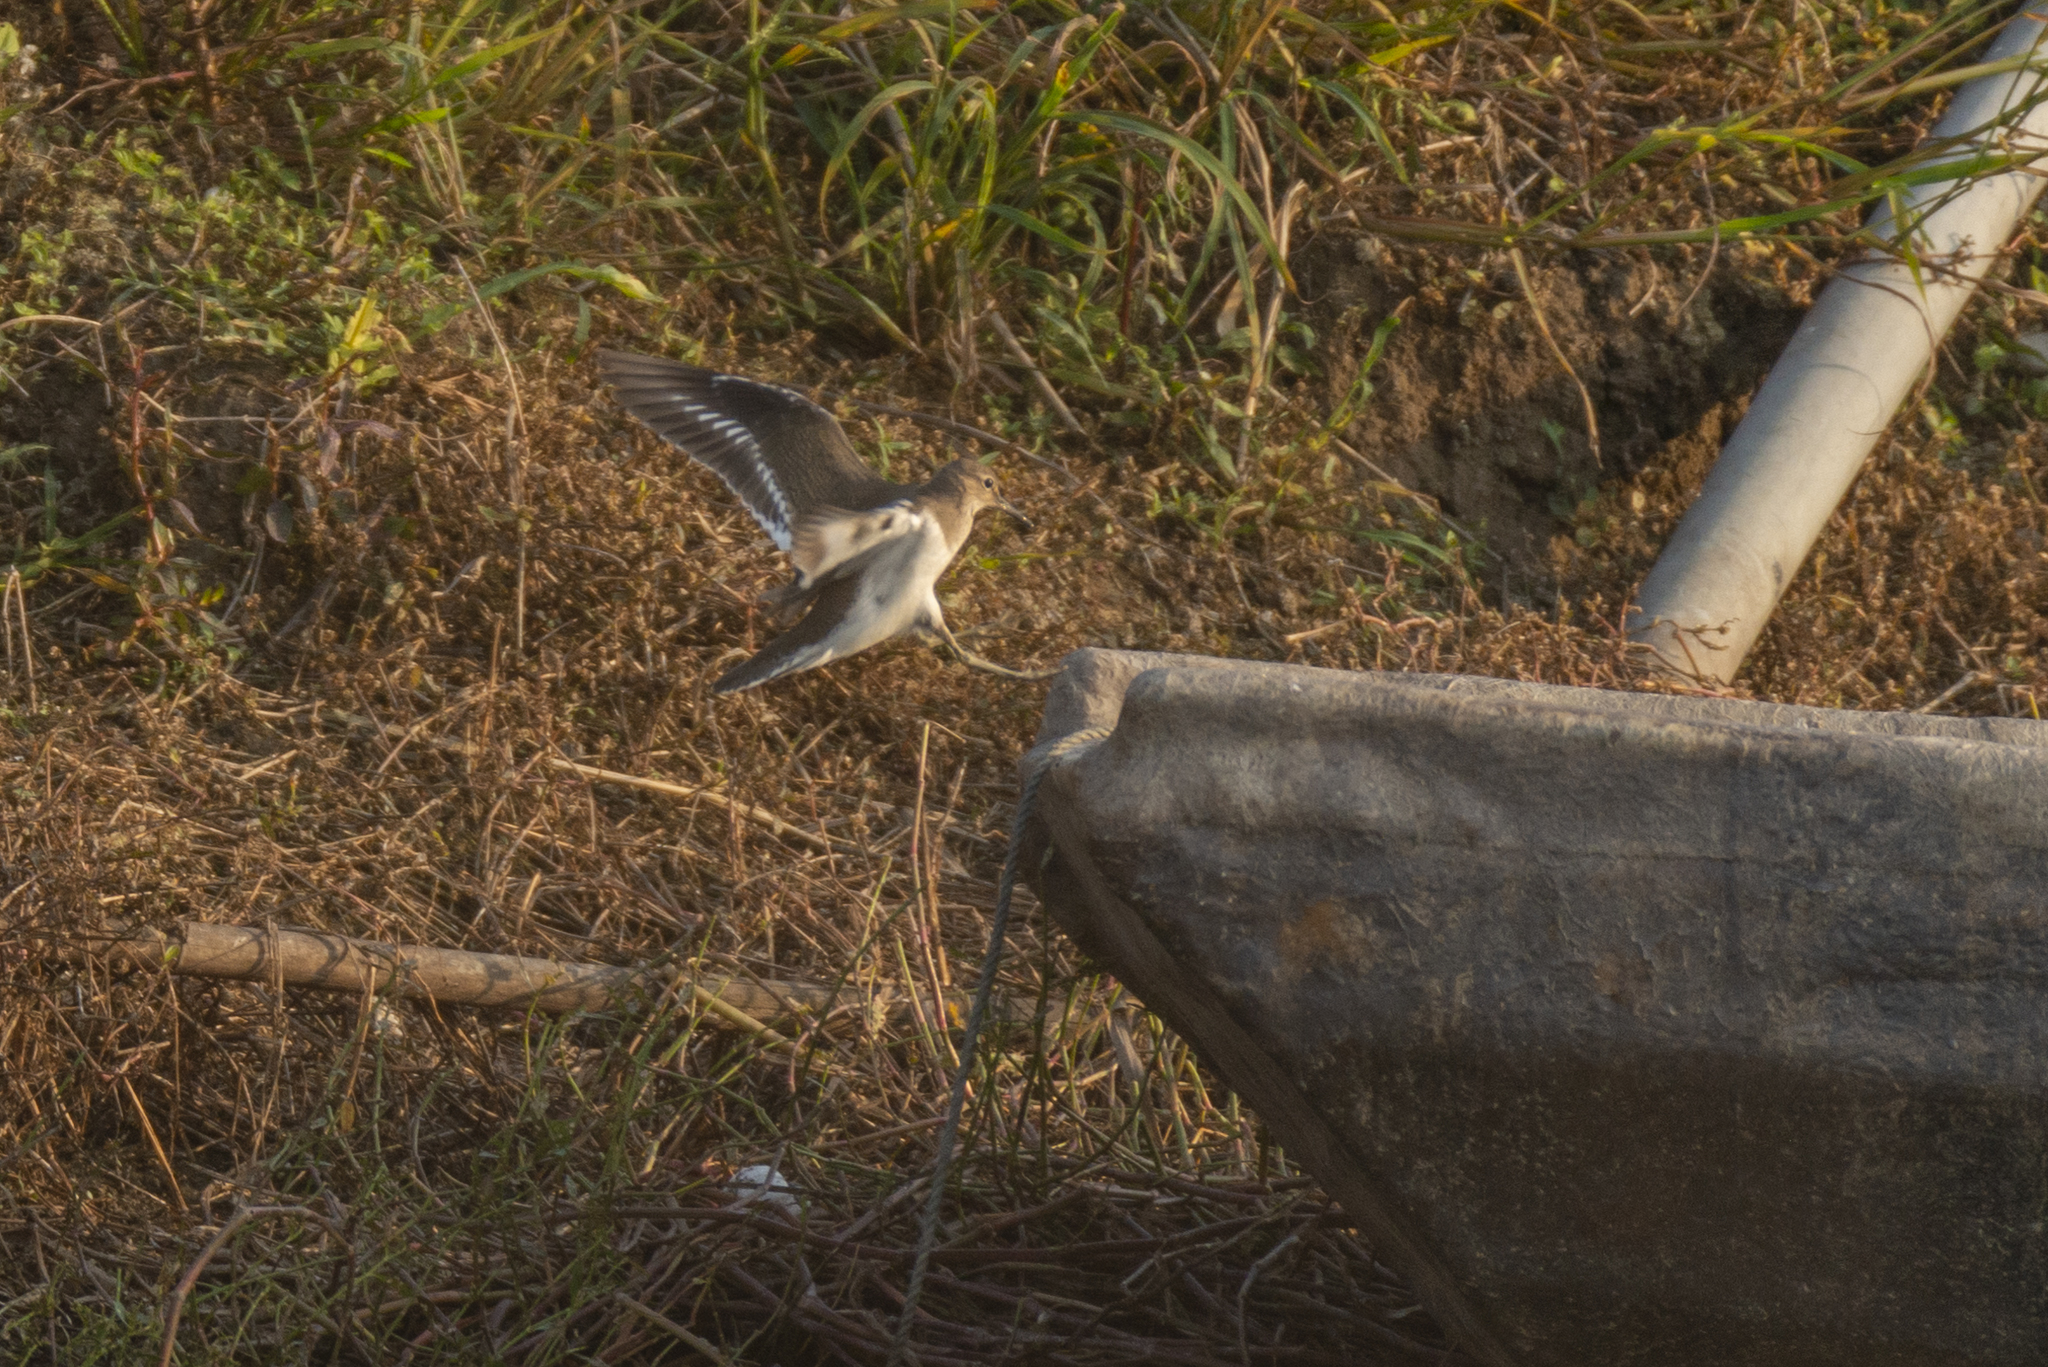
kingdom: Animalia
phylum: Chordata
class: Aves
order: Charadriiformes
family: Scolopacidae
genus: Actitis
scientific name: Actitis hypoleucos
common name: Common sandpiper
